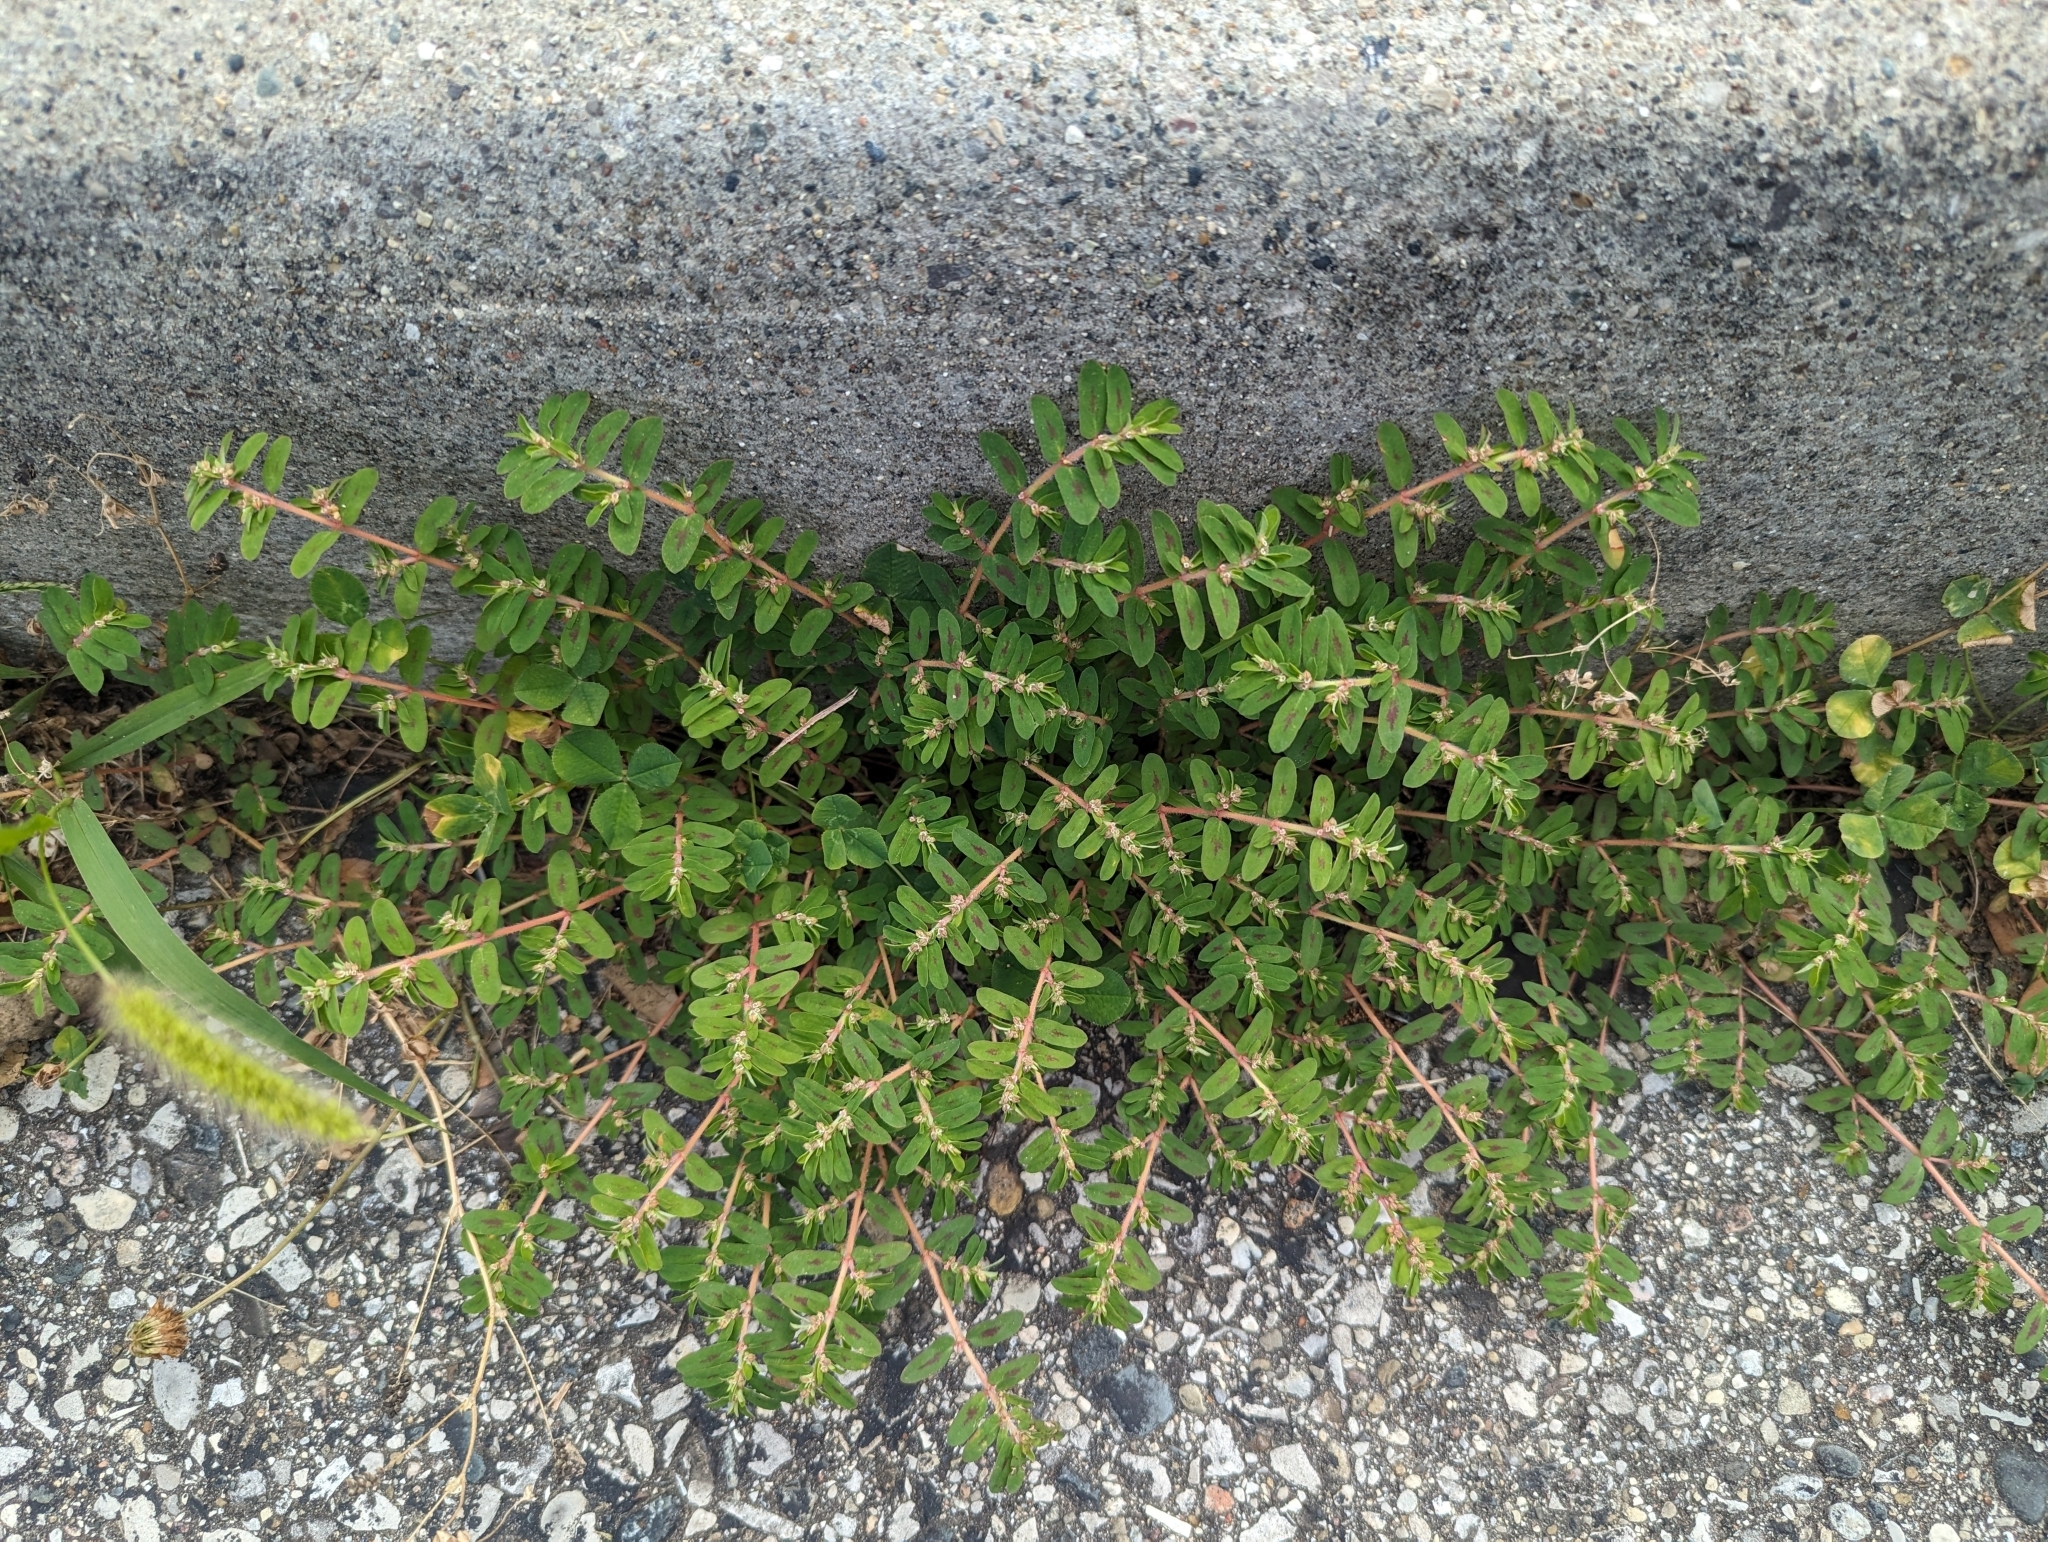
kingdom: Plantae
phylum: Tracheophyta
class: Magnoliopsida
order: Malpighiales
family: Euphorbiaceae
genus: Euphorbia
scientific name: Euphorbia maculata
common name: Spotted spurge
